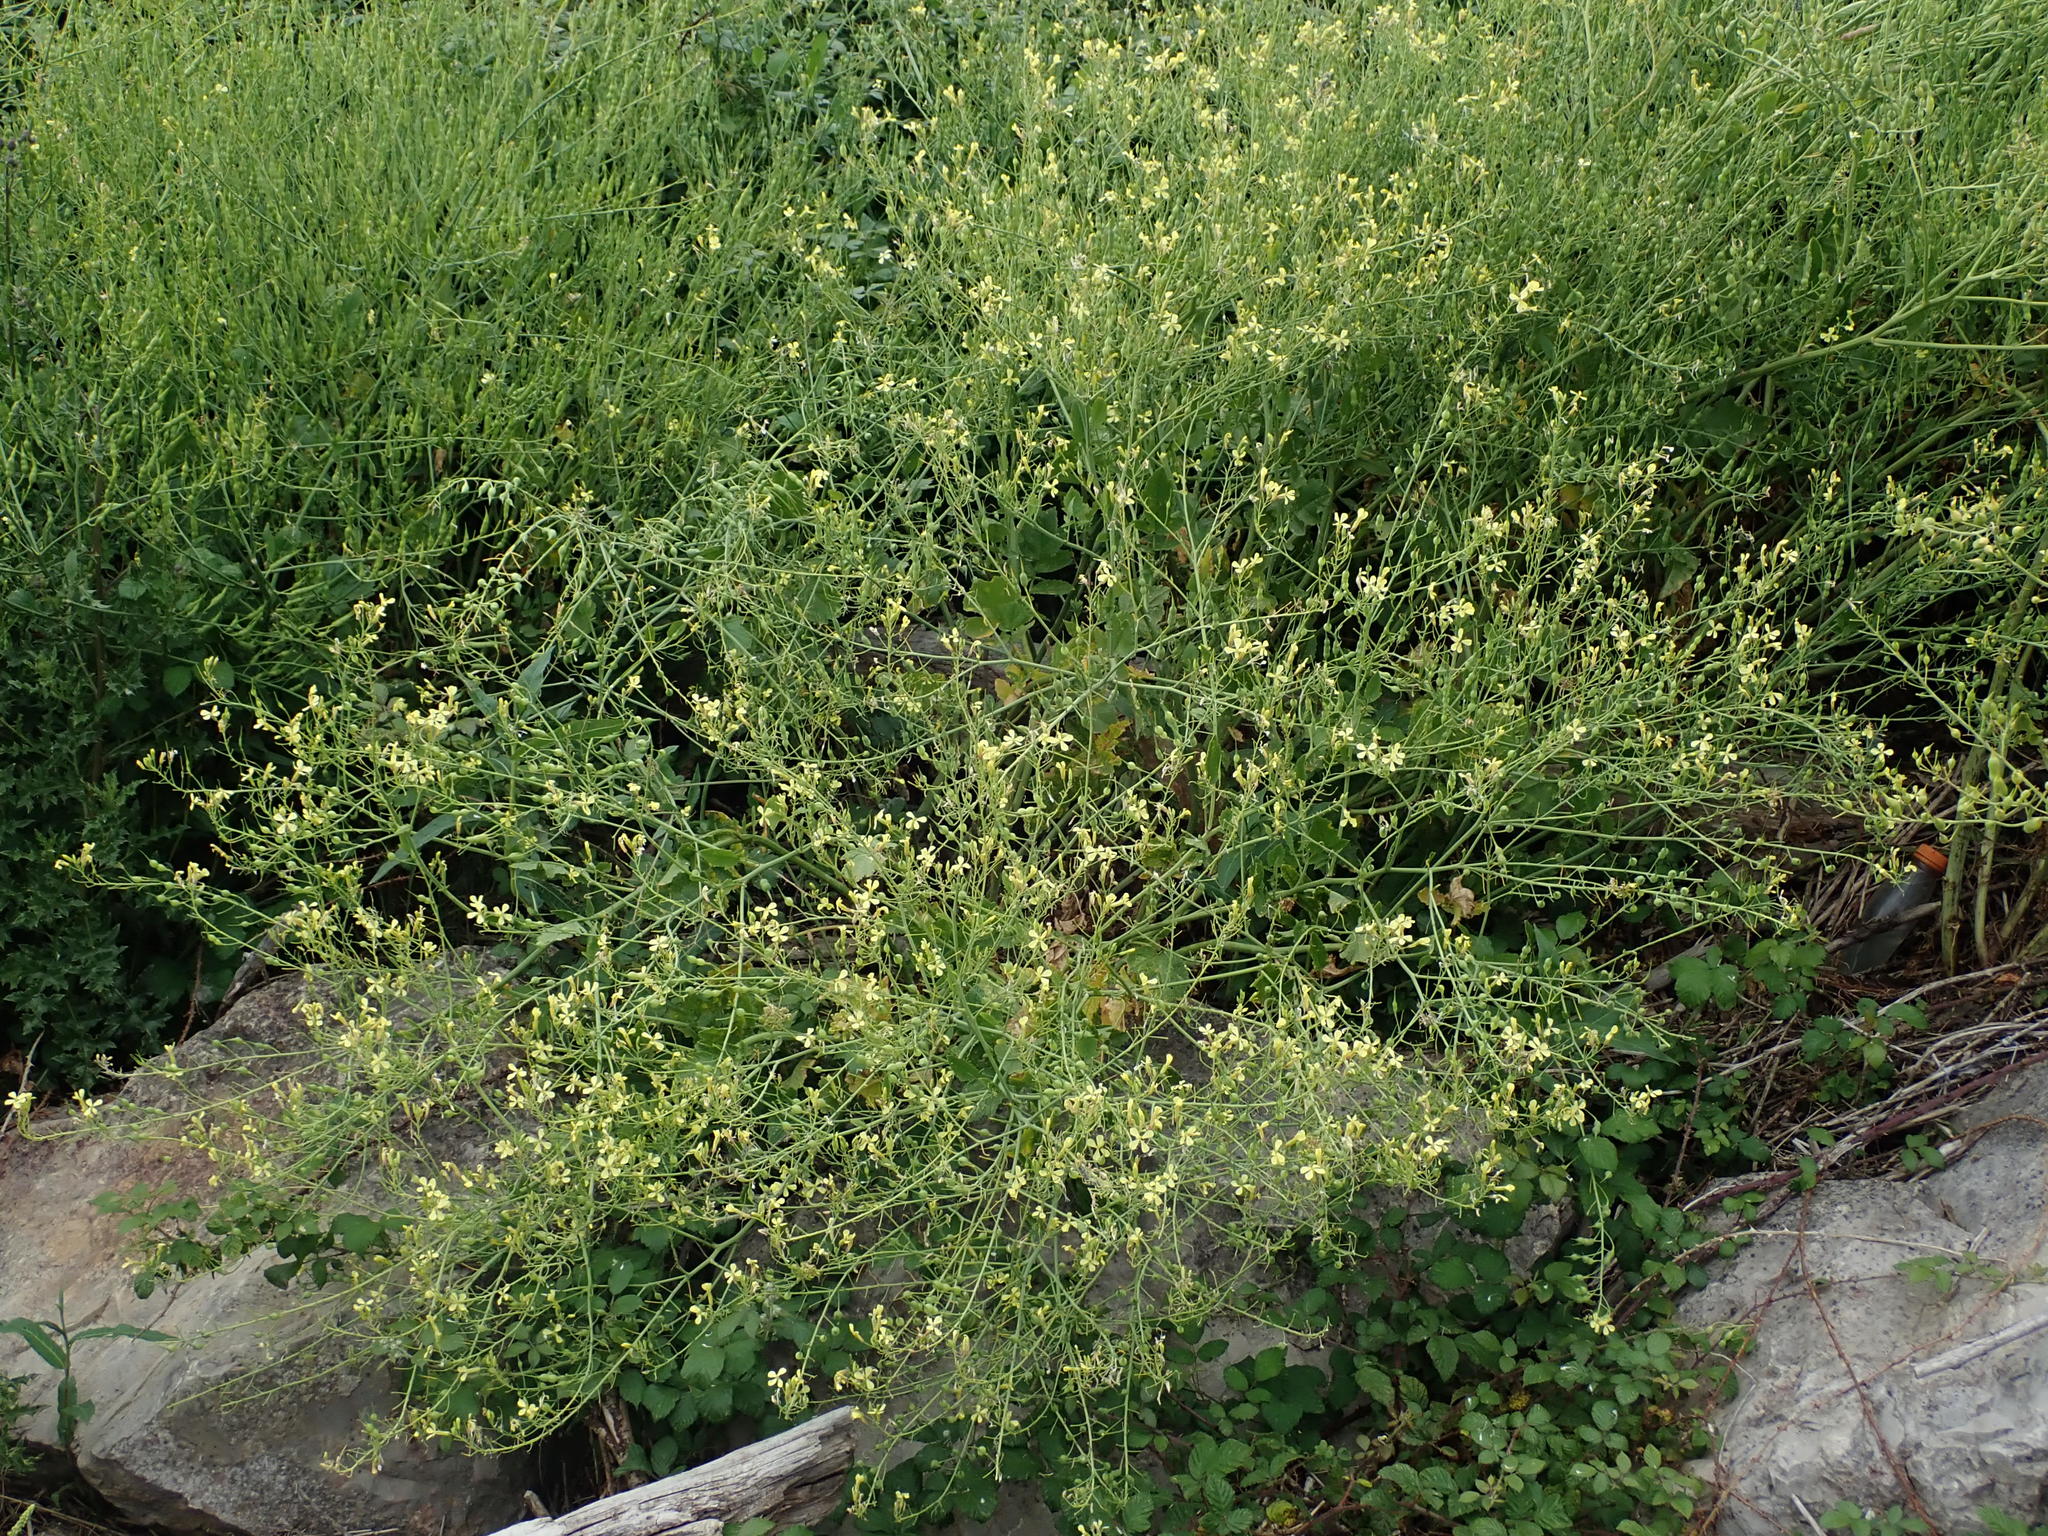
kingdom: Plantae
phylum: Tracheophyta
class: Magnoliopsida
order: Brassicales
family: Brassicaceae
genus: Raphanus
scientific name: Raphanus raphanistrum
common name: Wild radish
